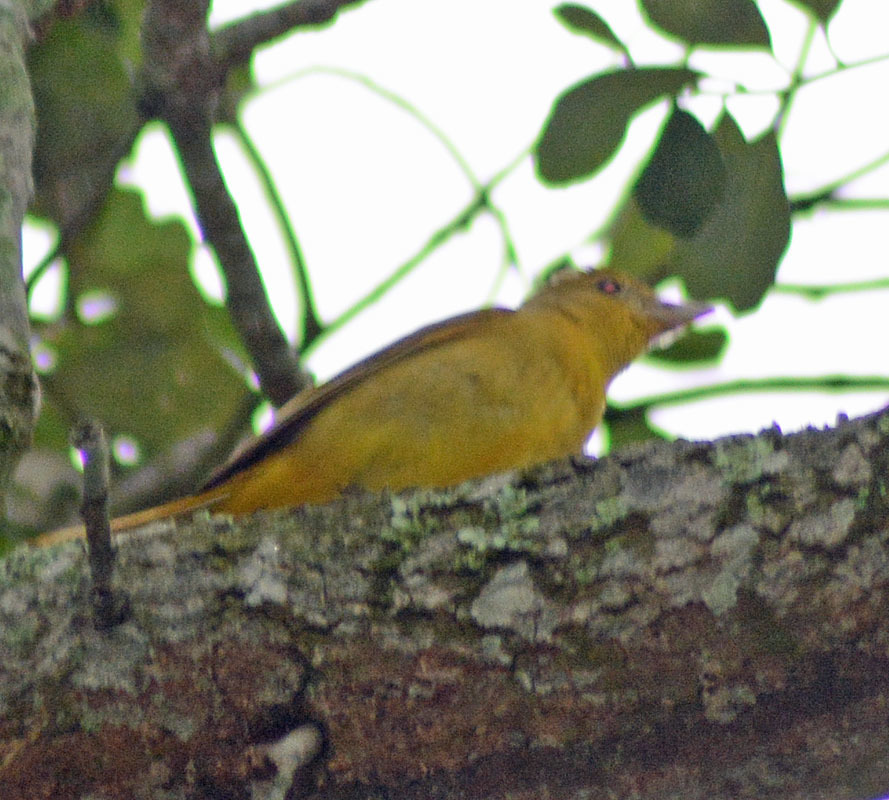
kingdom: Animalia
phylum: Chordata
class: Aves
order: Passeriformes
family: Cardinalidae
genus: Piranga
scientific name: Piranga rubra
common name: Summer tanager
